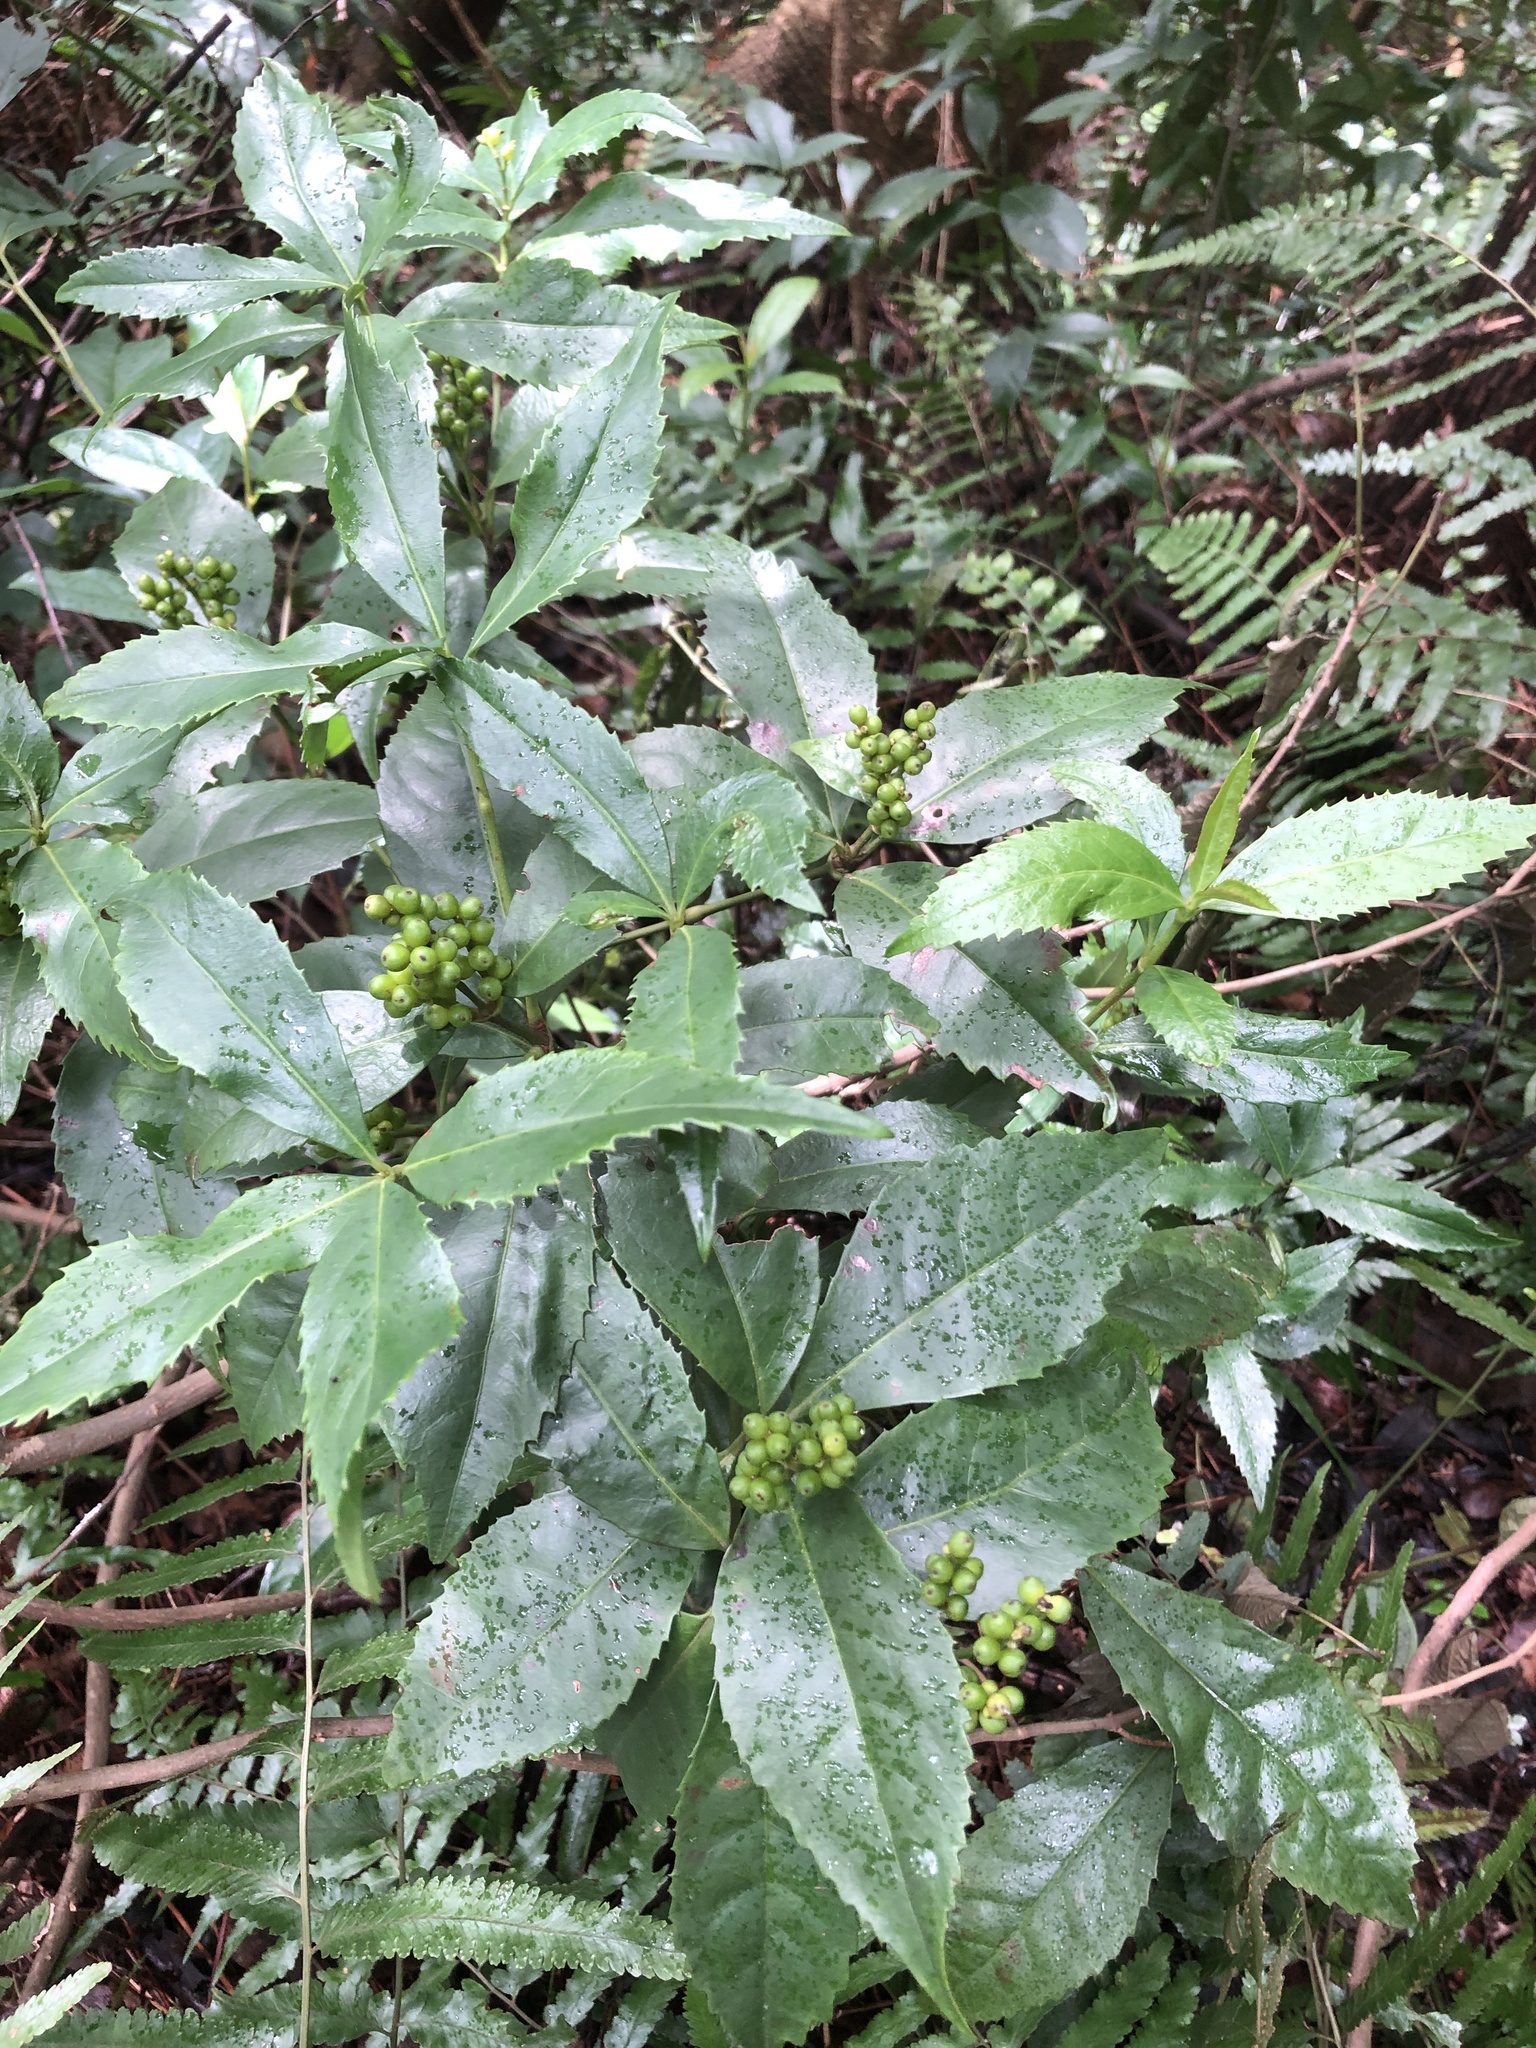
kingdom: Plantae
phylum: Tracheophyta
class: Magnoliopsida
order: Chloranthales
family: Chloranthaceae
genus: Sarcandra
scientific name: Sarcandra glabra
